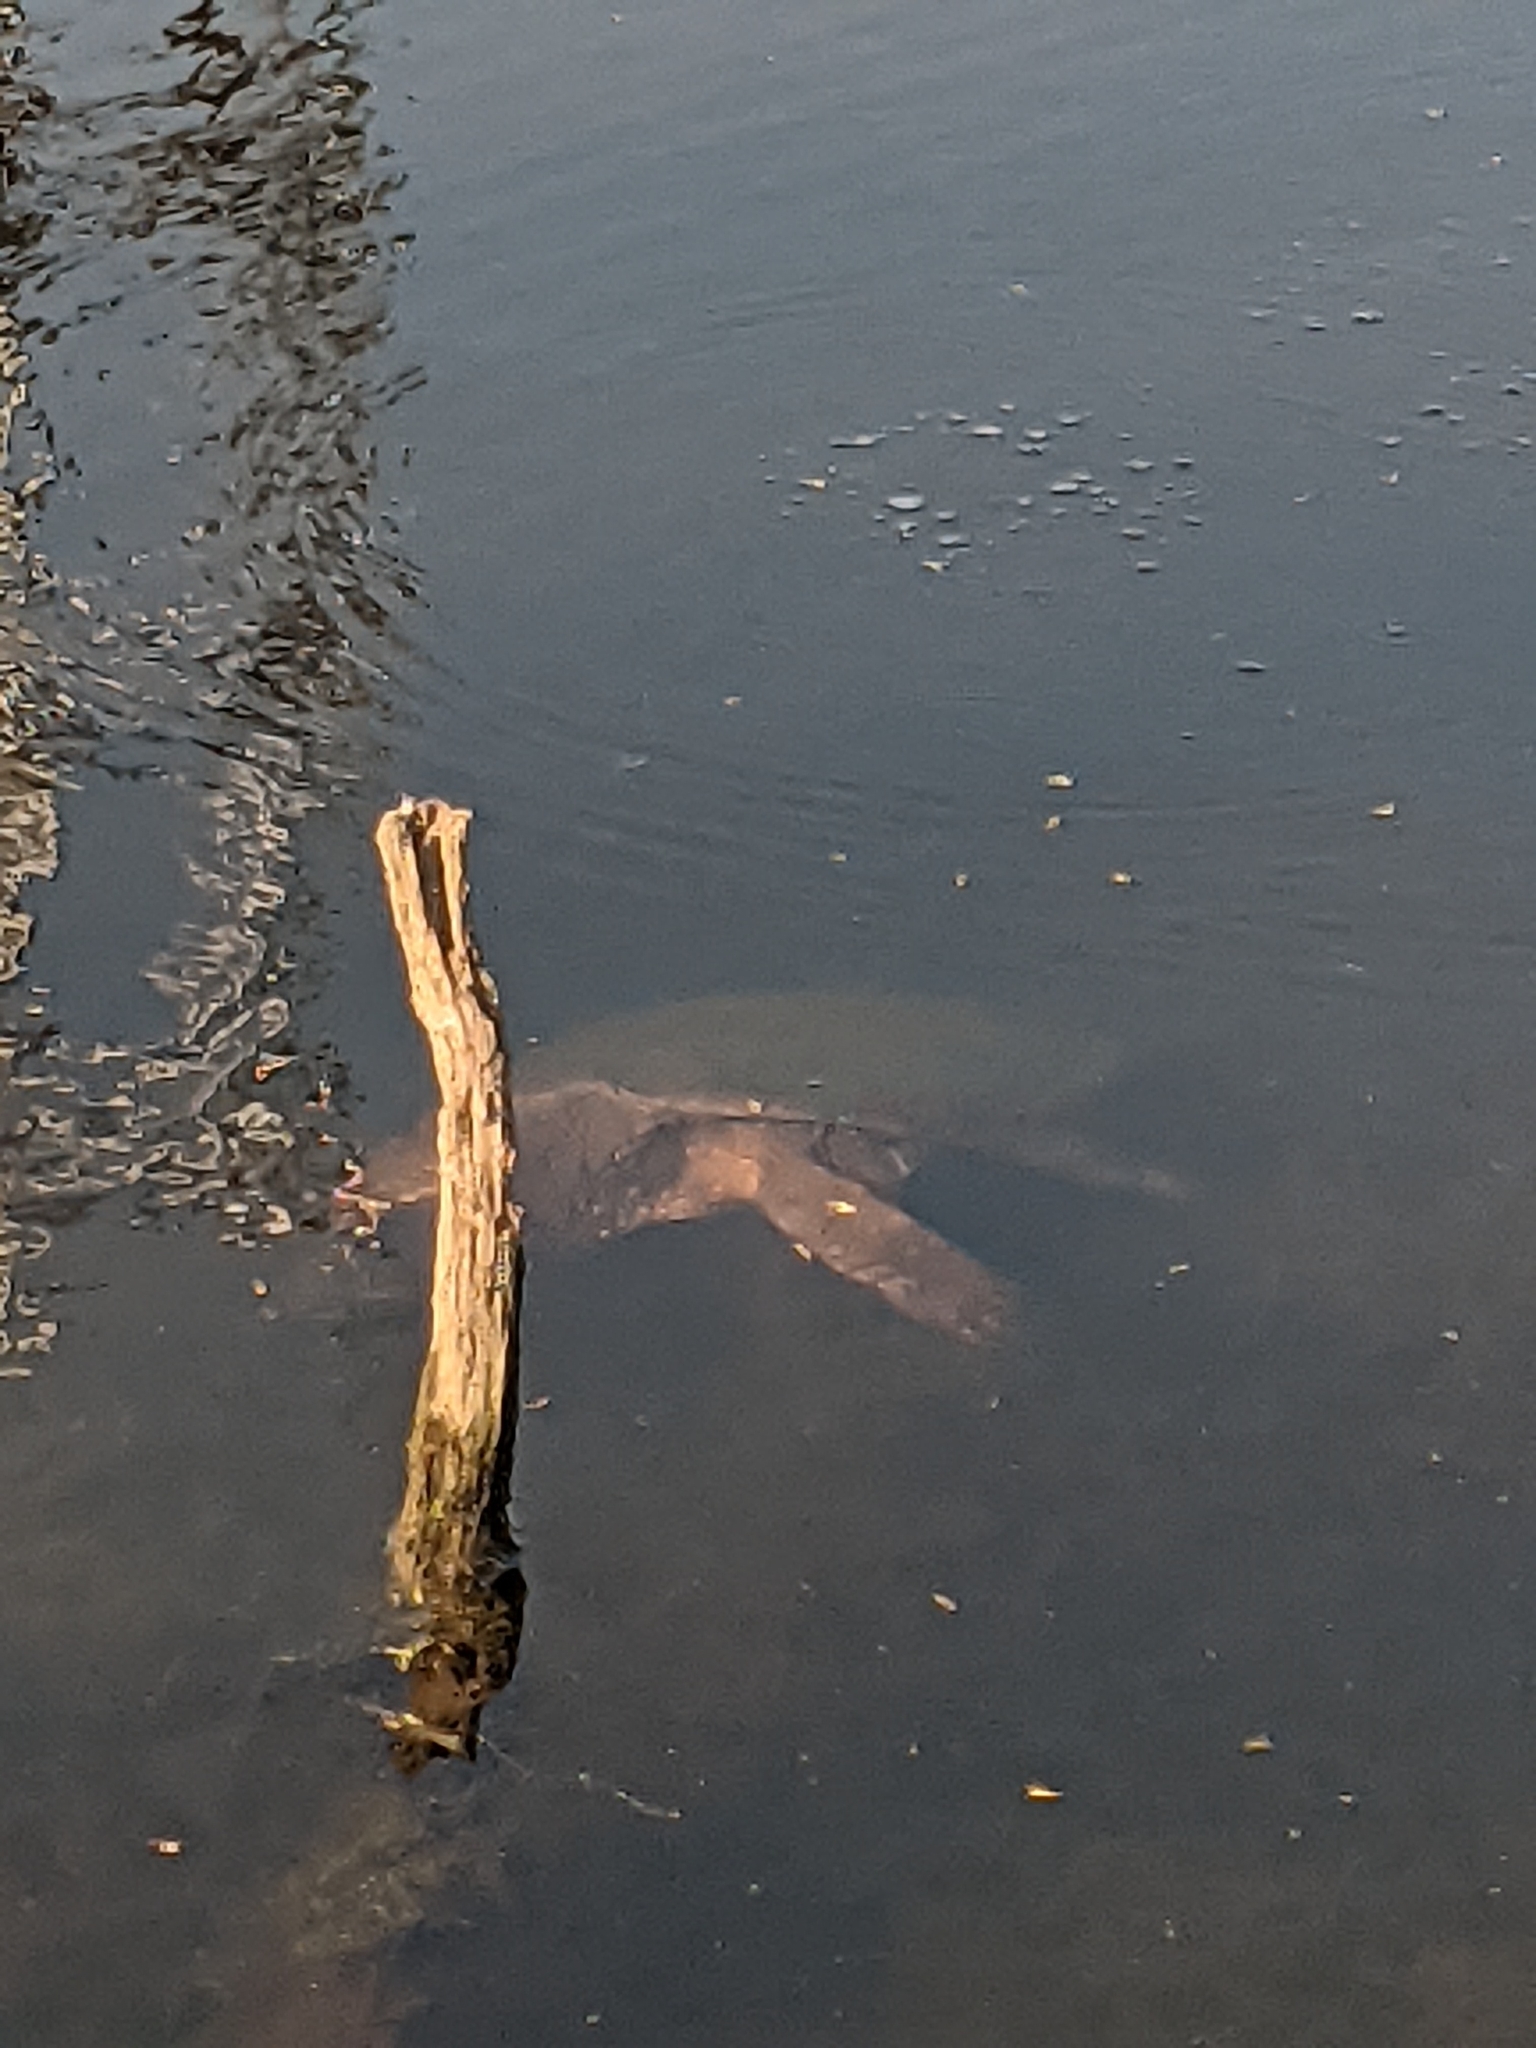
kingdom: Animalia
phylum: Chordata
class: Testudines
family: Chelydridae
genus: Chelydra
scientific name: Chelydra serpentina
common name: Common snapping turtle
